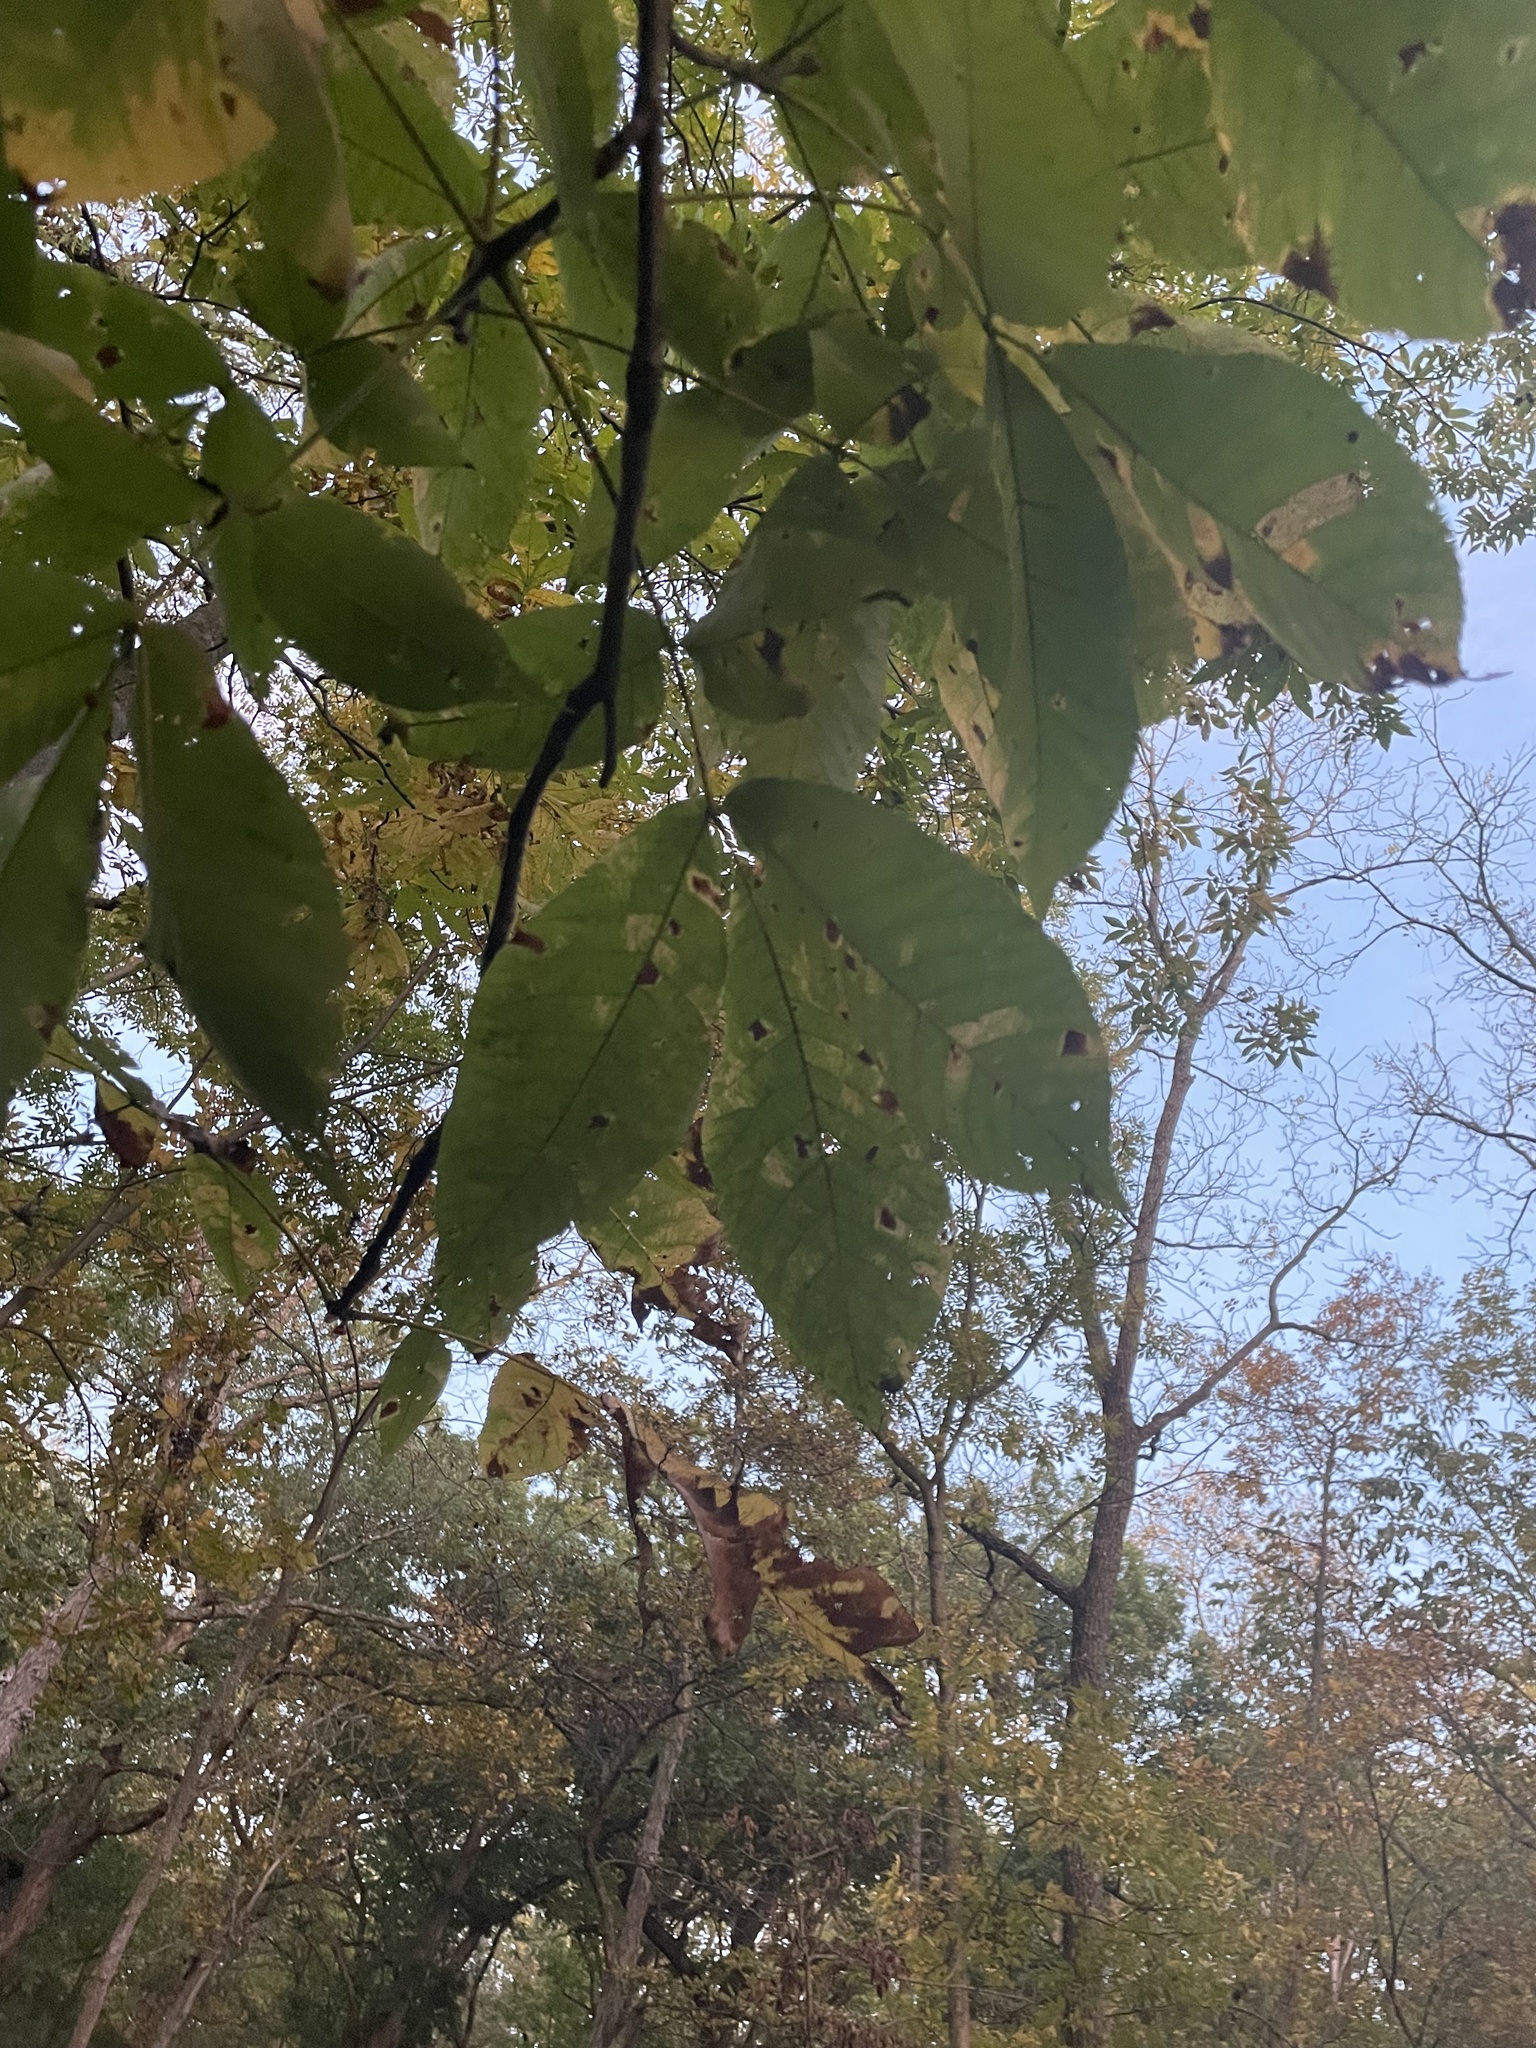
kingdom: Plantae
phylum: Tracheophyta
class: Magnoliopsida
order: Fagales
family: Juglandaceae
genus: Carya
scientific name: Carya ovata
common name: Shagbark hickory
